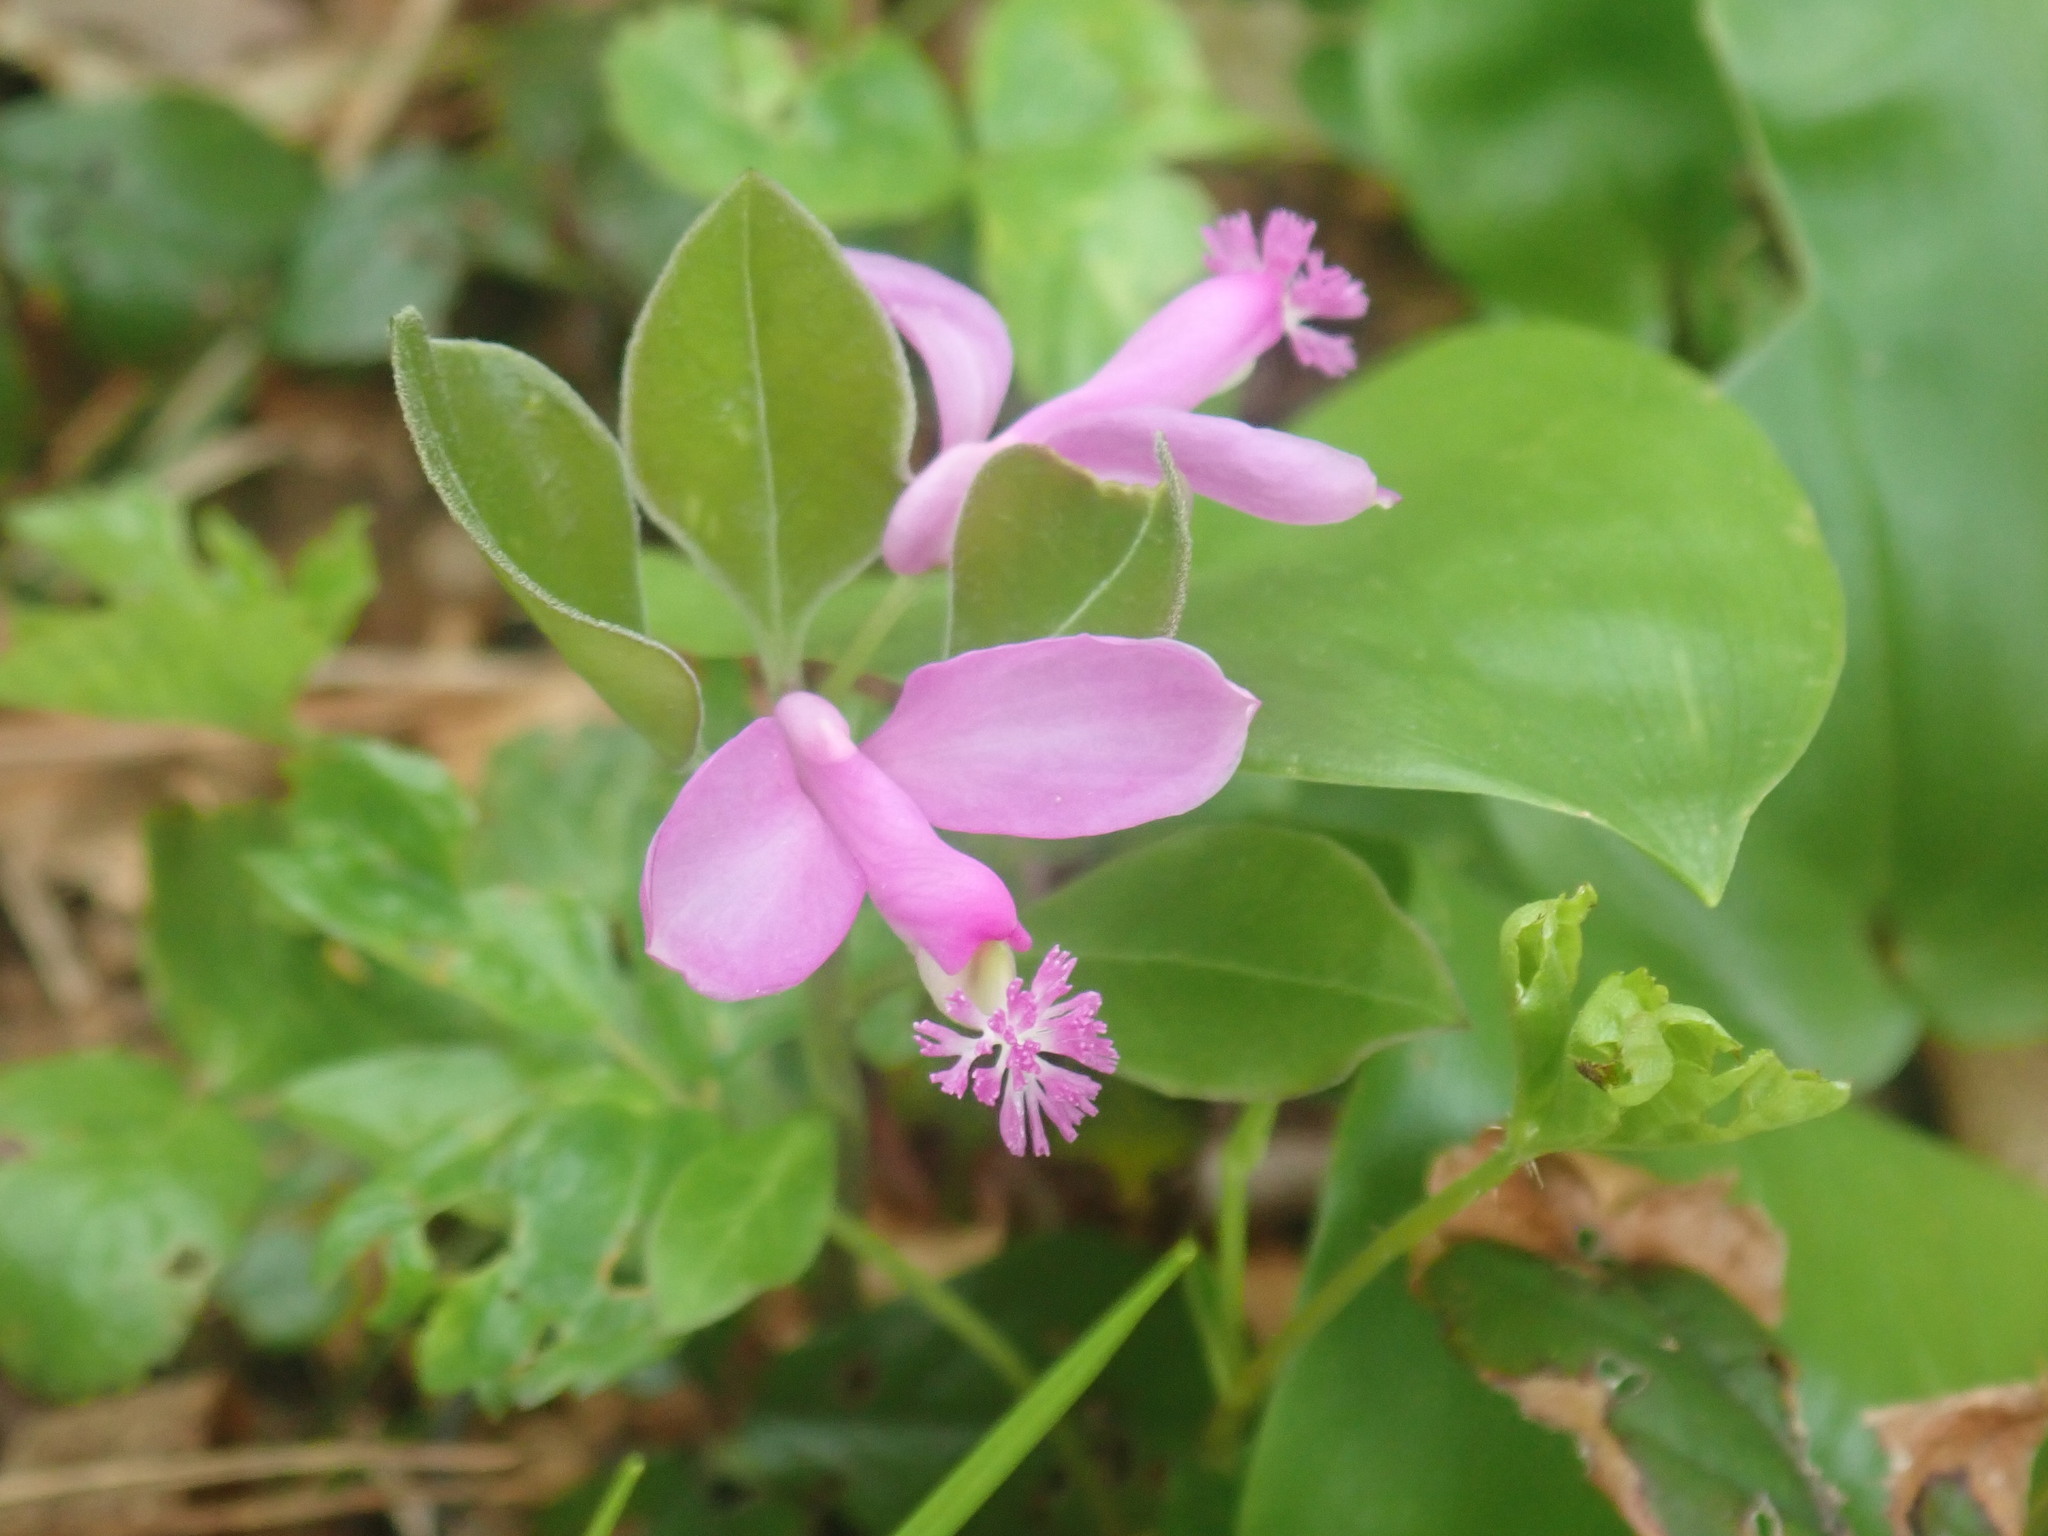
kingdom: Plantae
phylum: Tracheophyta
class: Magnoliopsida
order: Fabales
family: Polygalaceae
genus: Polygaloides
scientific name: Polygaloides paucifolia
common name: Bird-on-the-wing
